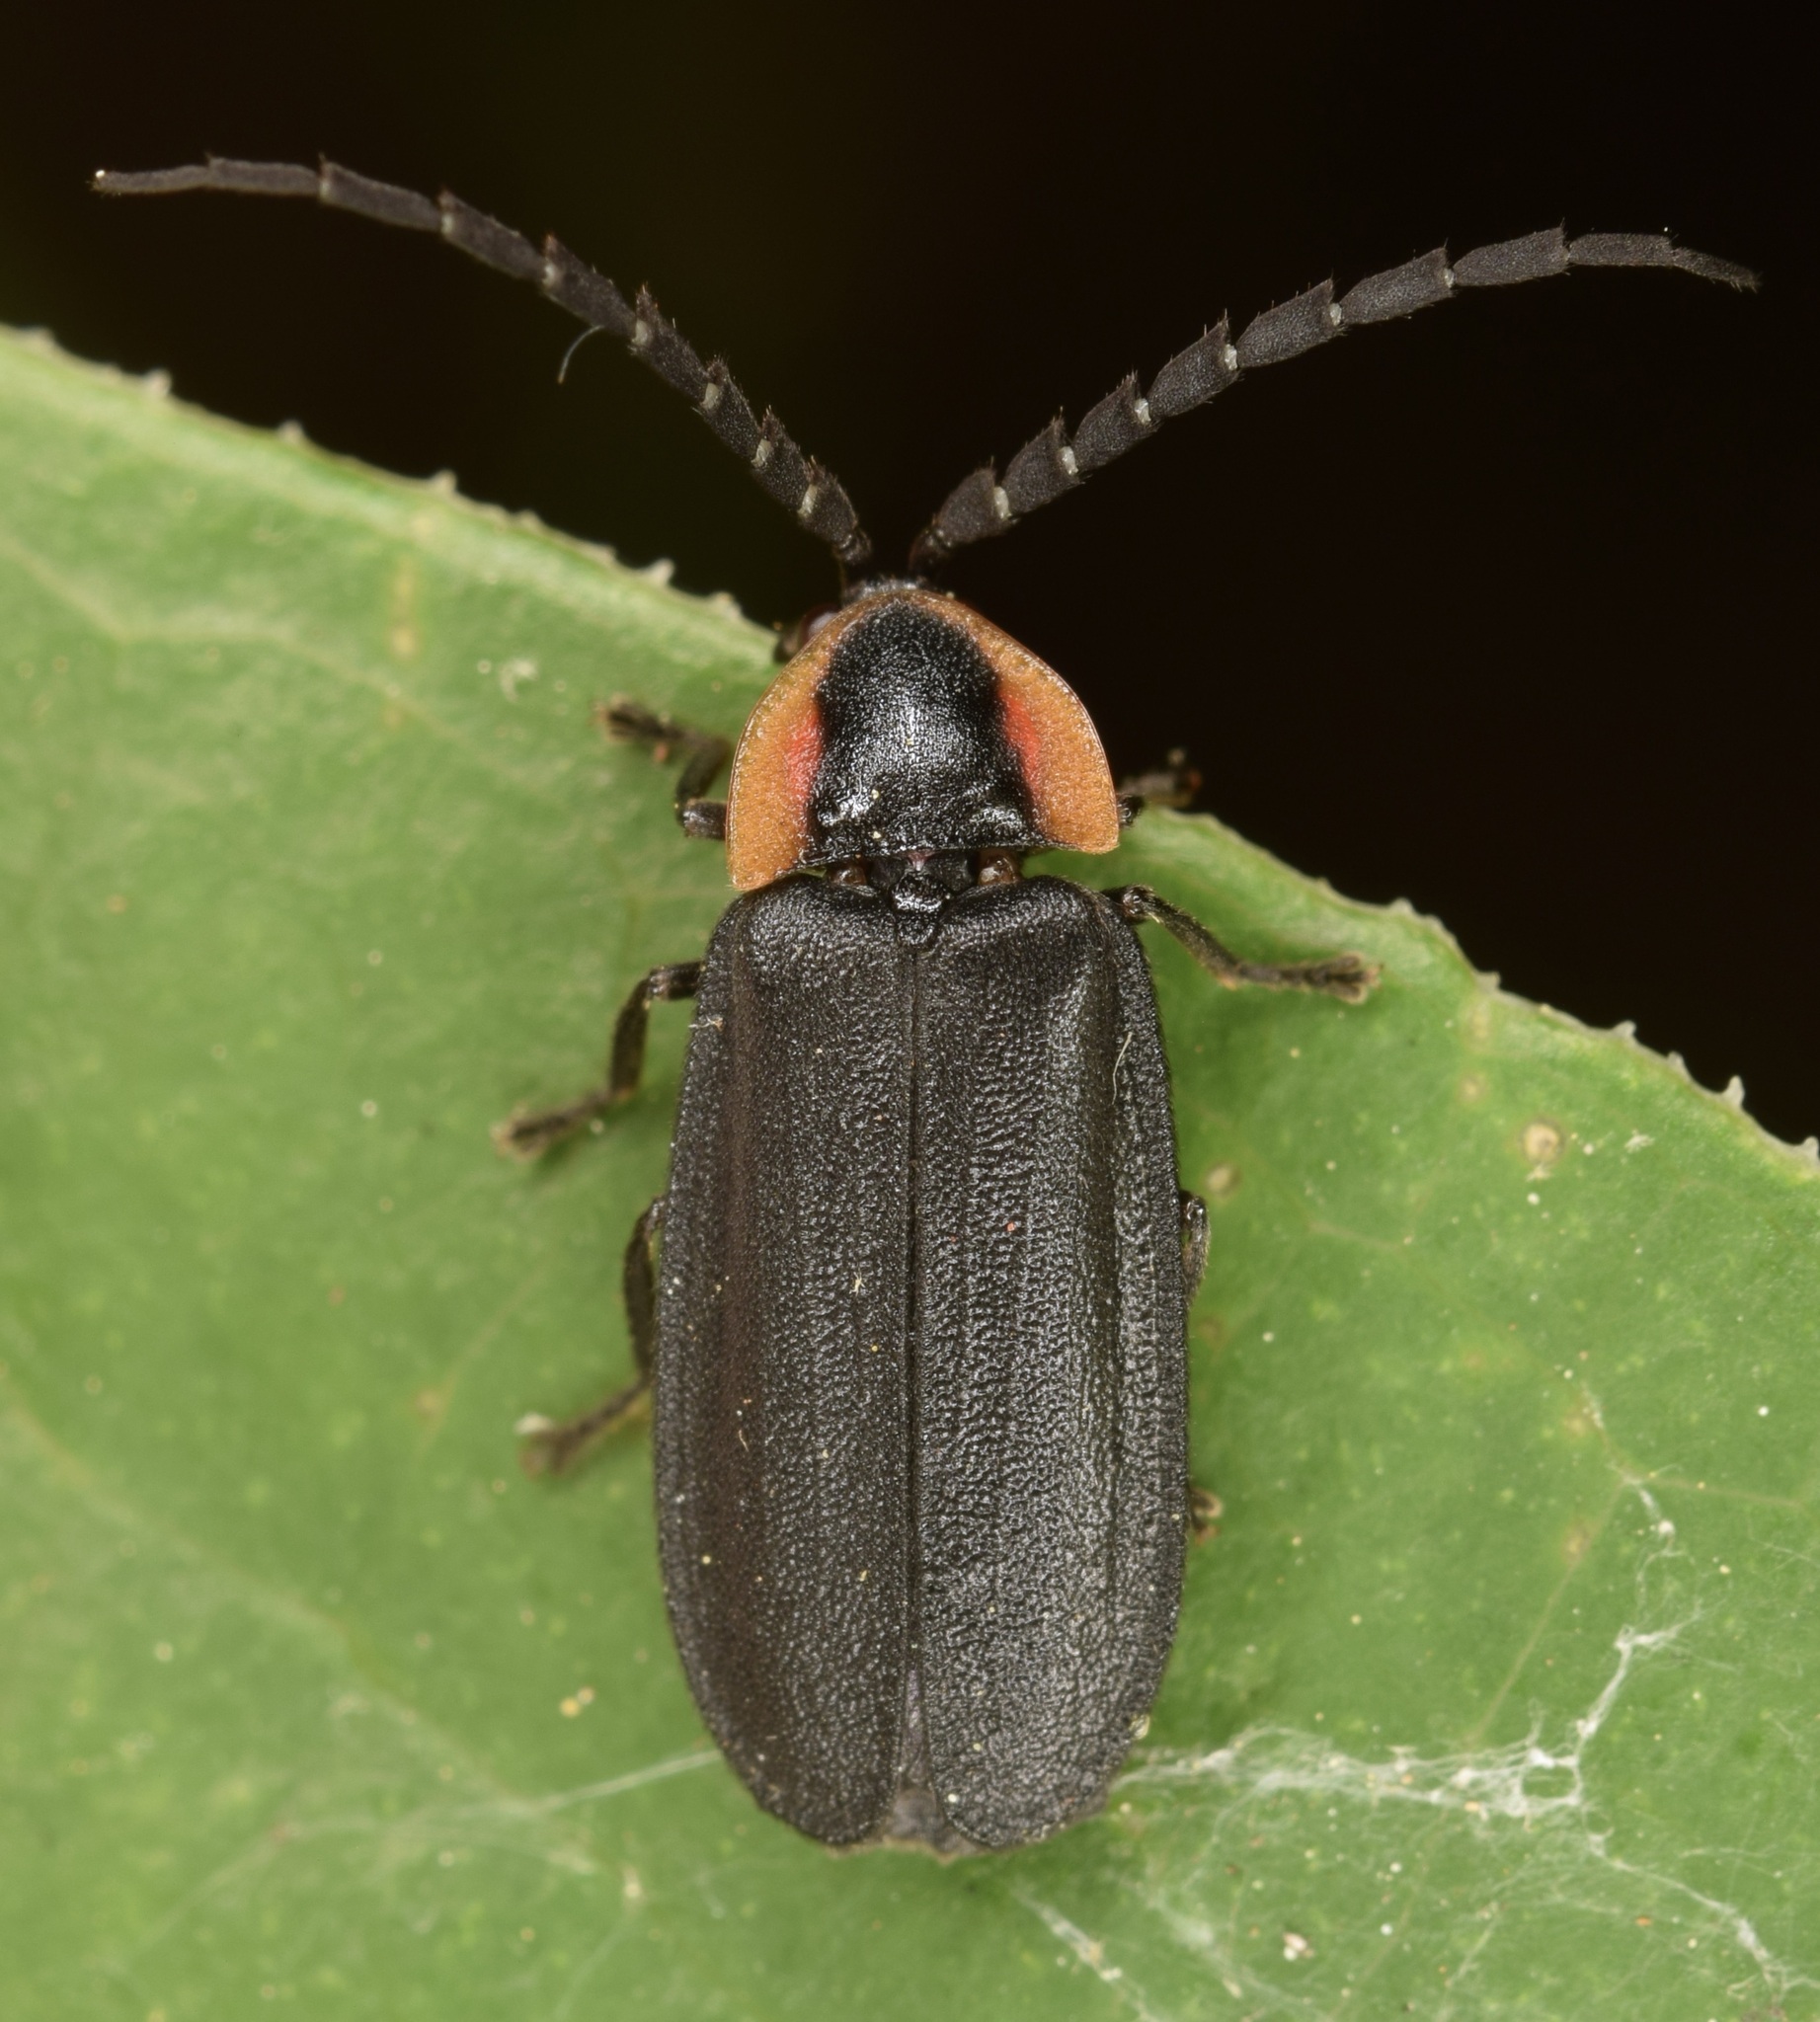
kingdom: Animalia
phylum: Arthropoda
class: Insecta
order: Coleoptera
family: Lampyridae
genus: Lucidota
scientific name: Lucidota atra
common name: Black firefly
